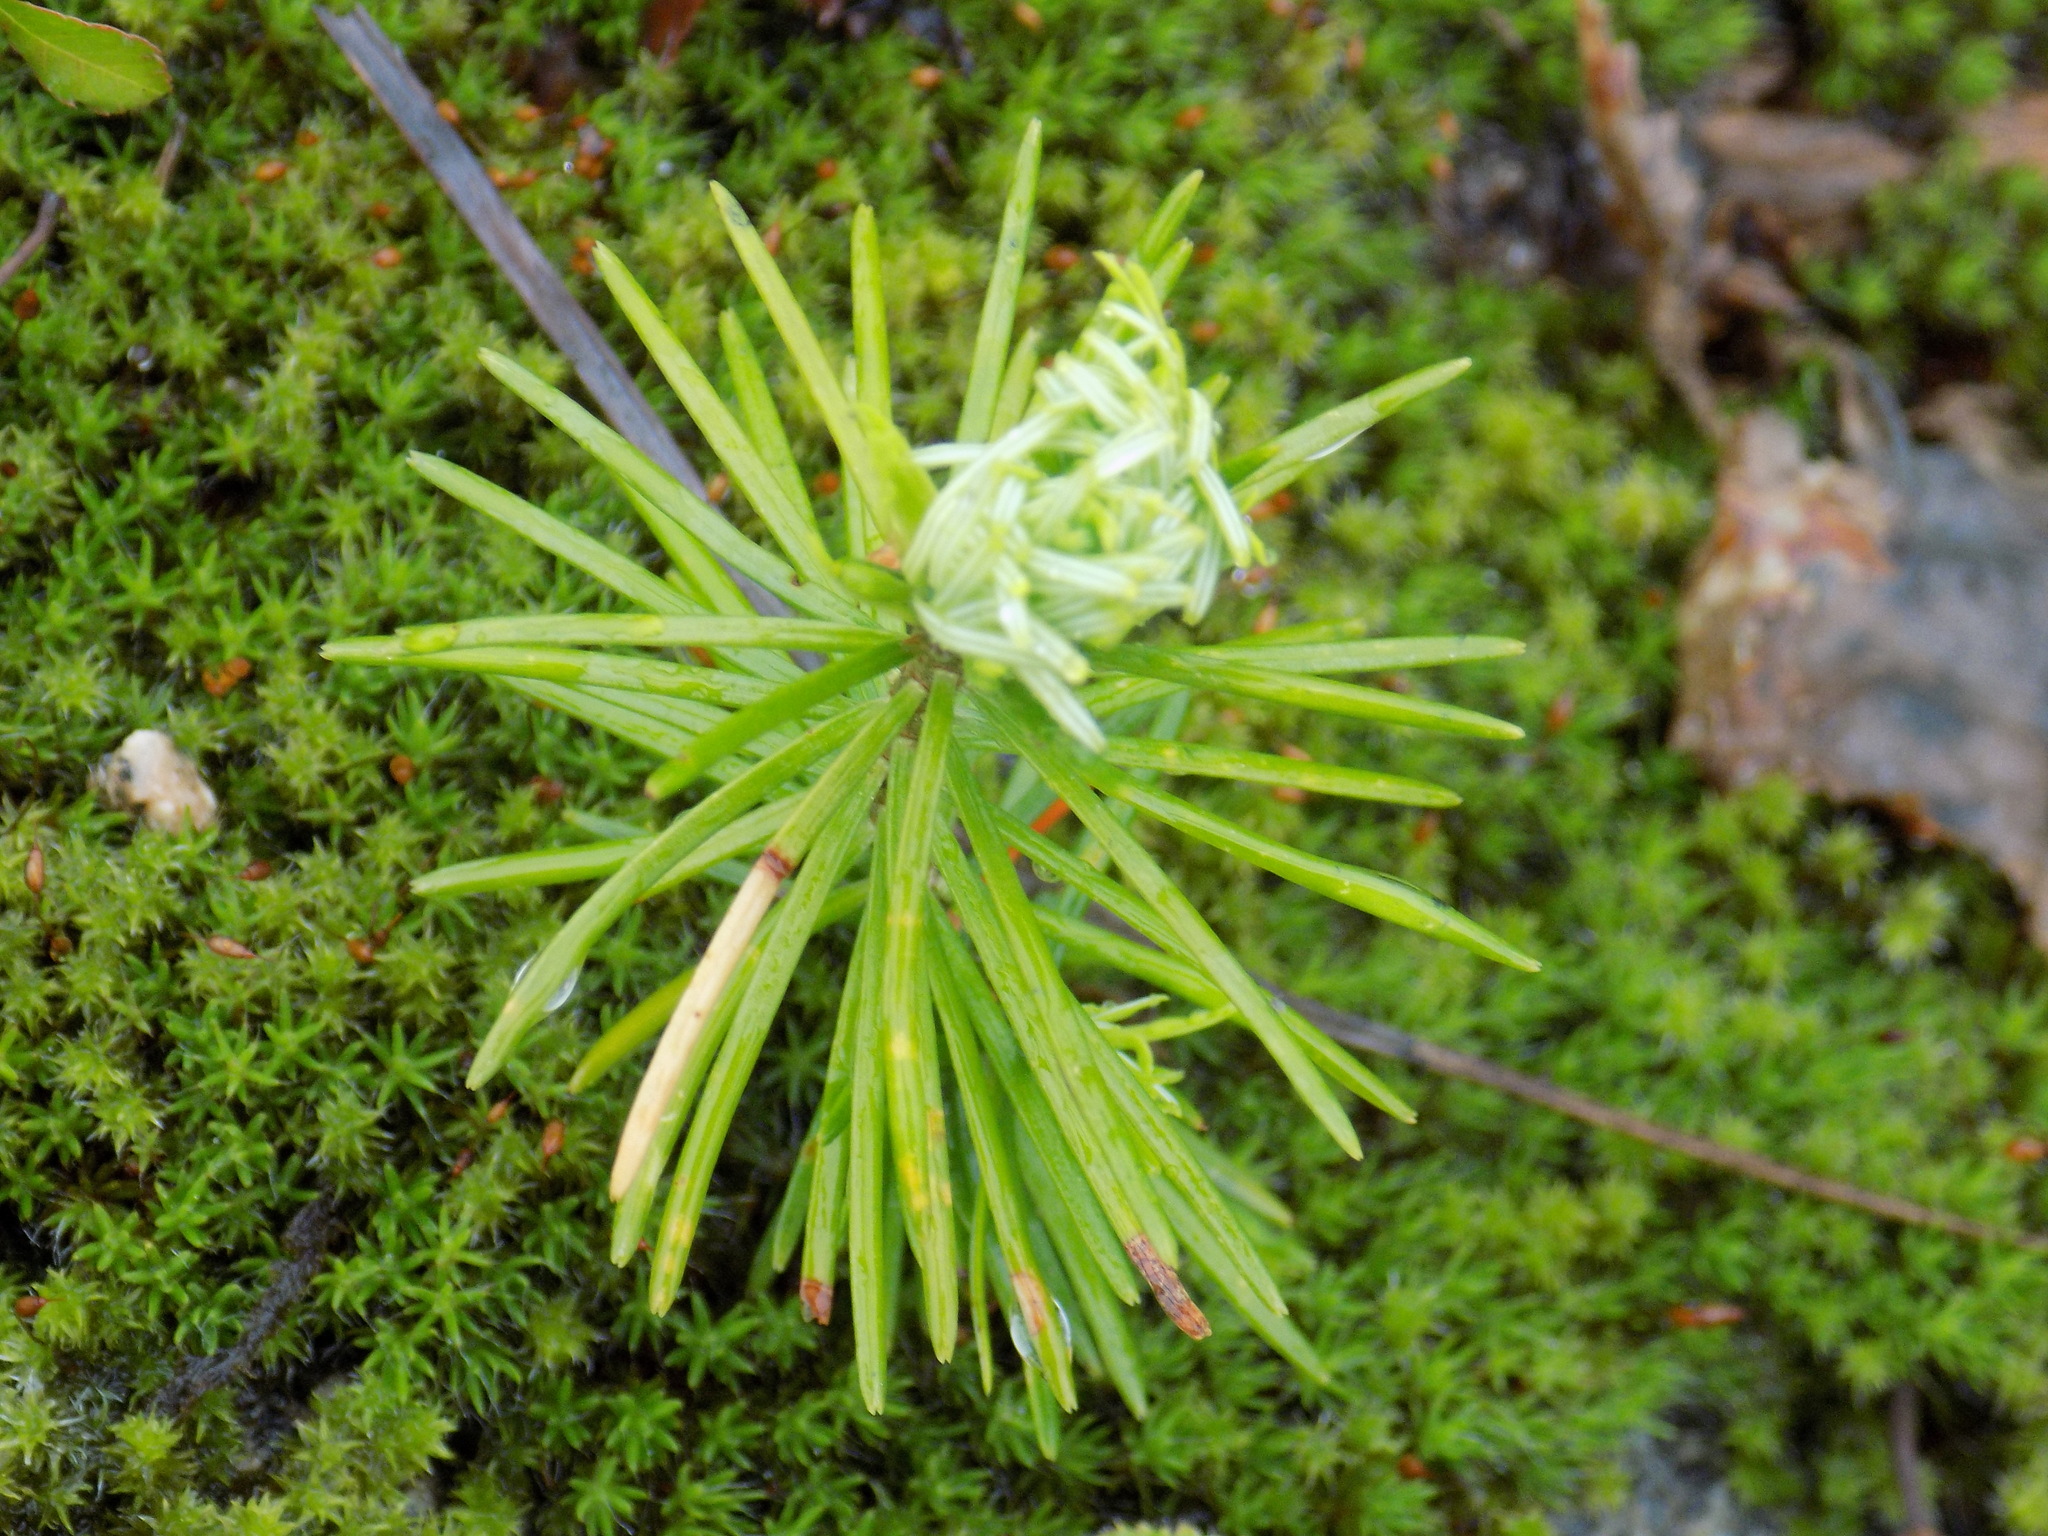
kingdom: Plantae
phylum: Tracheophyta
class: Pinopsida
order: Pinales
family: Pinaceae
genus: Abies
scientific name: Abies sibirica
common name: Siberian fir
